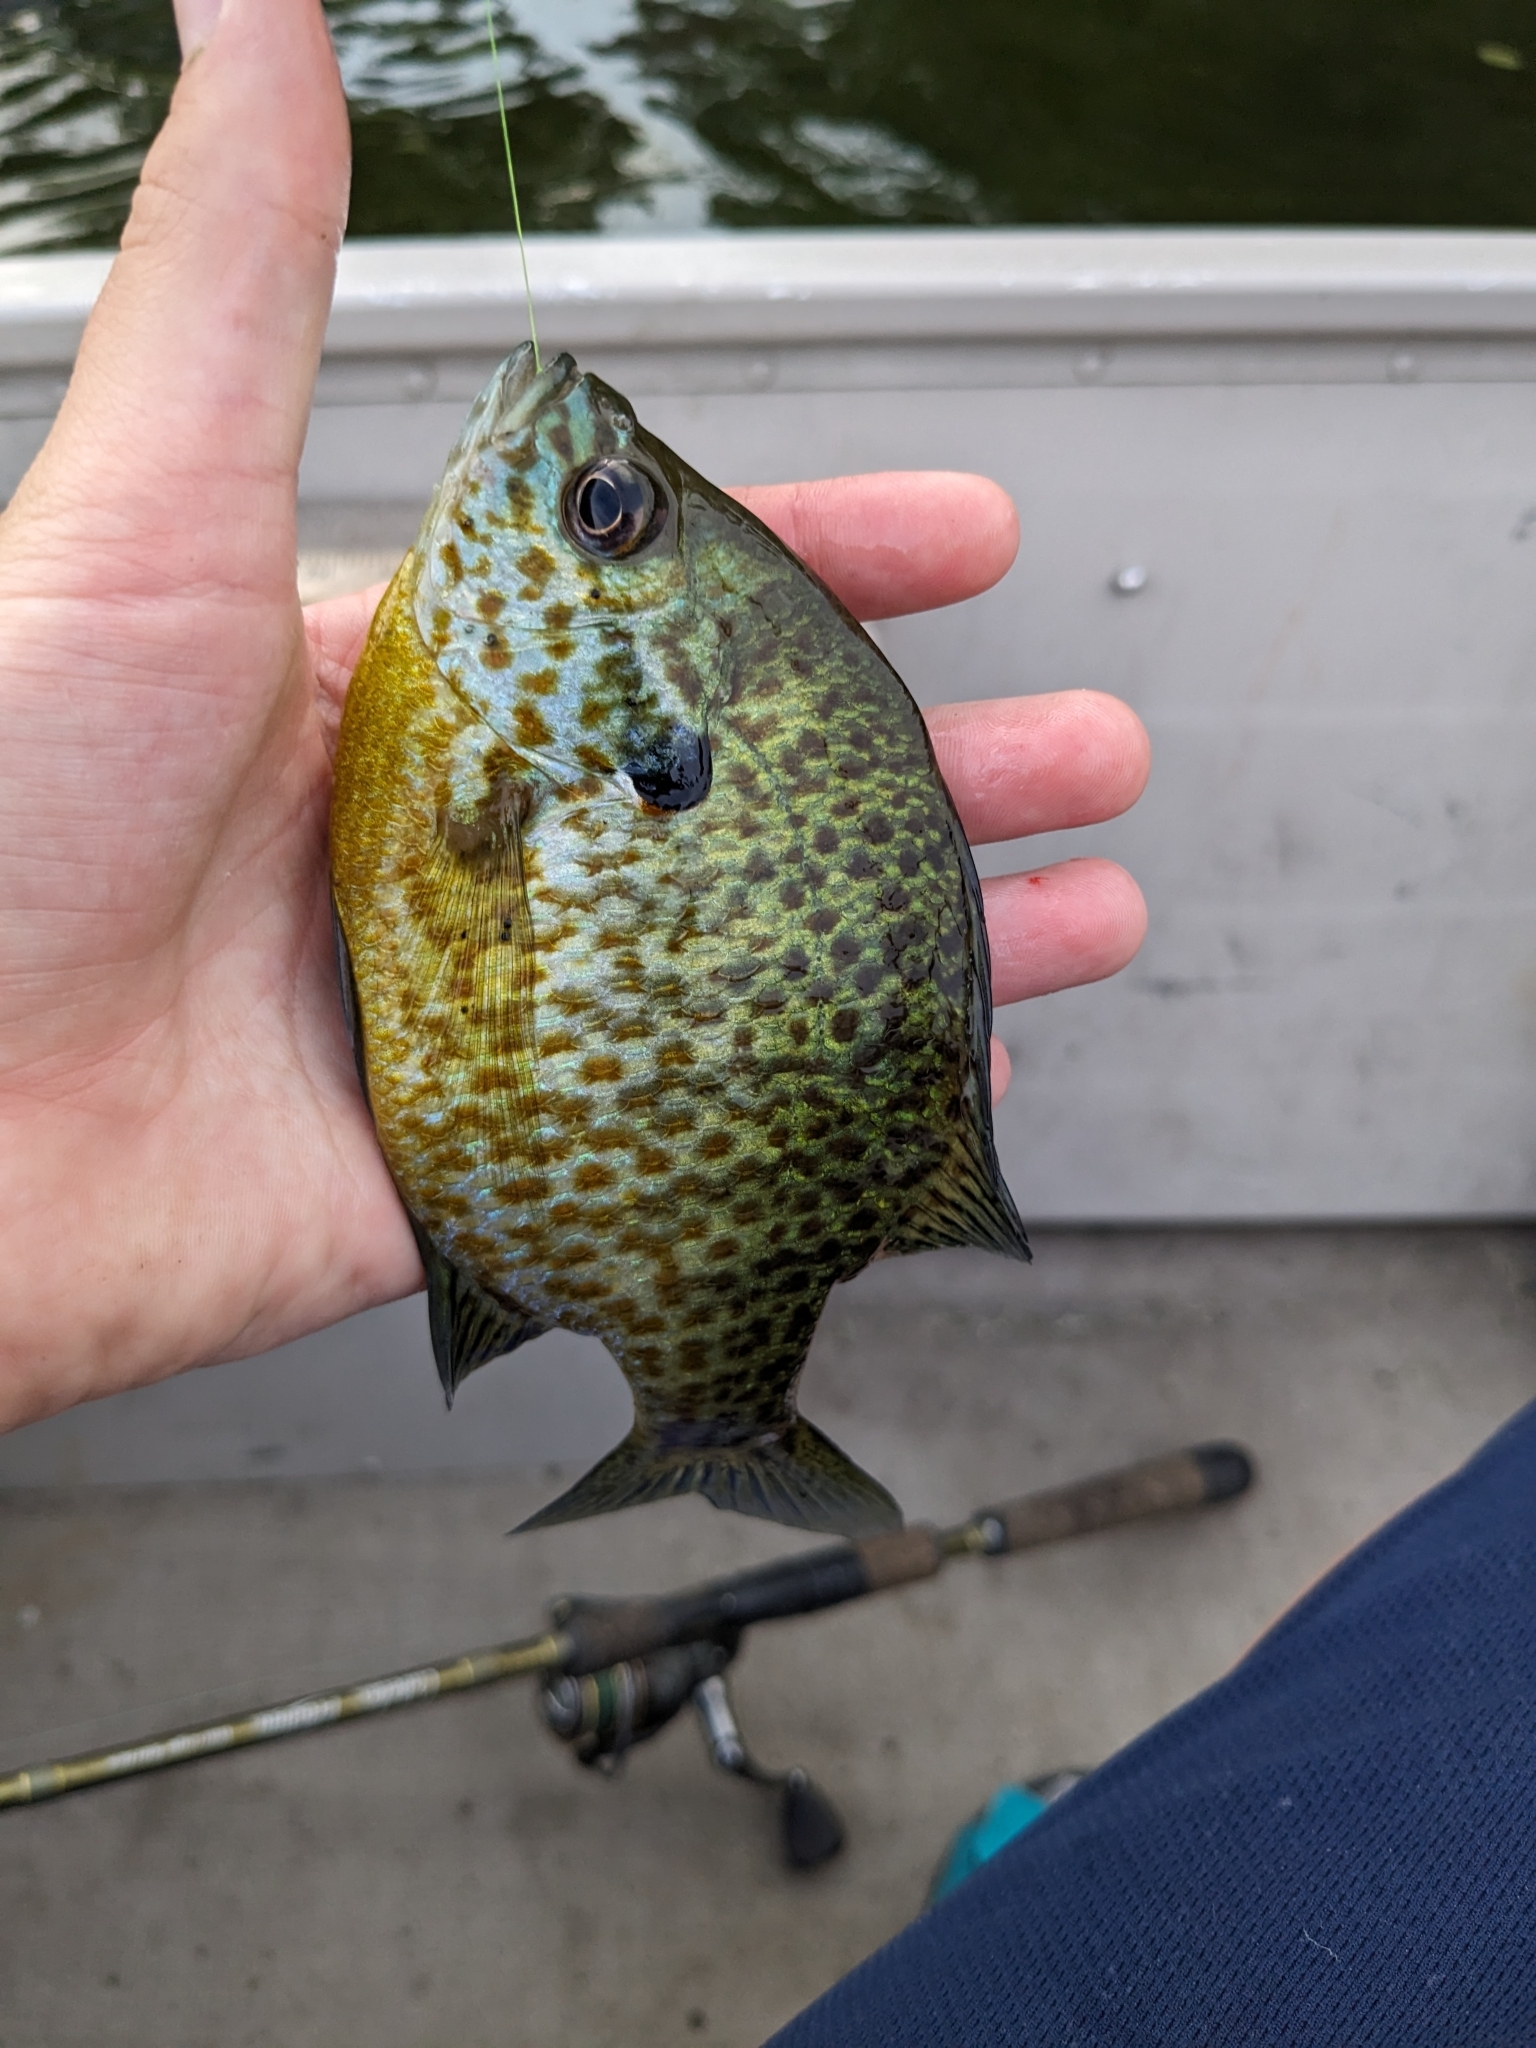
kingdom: Animalia
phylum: Chordata
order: Perciformes
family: Centrarchidae
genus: Lepomis
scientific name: Lepomis
